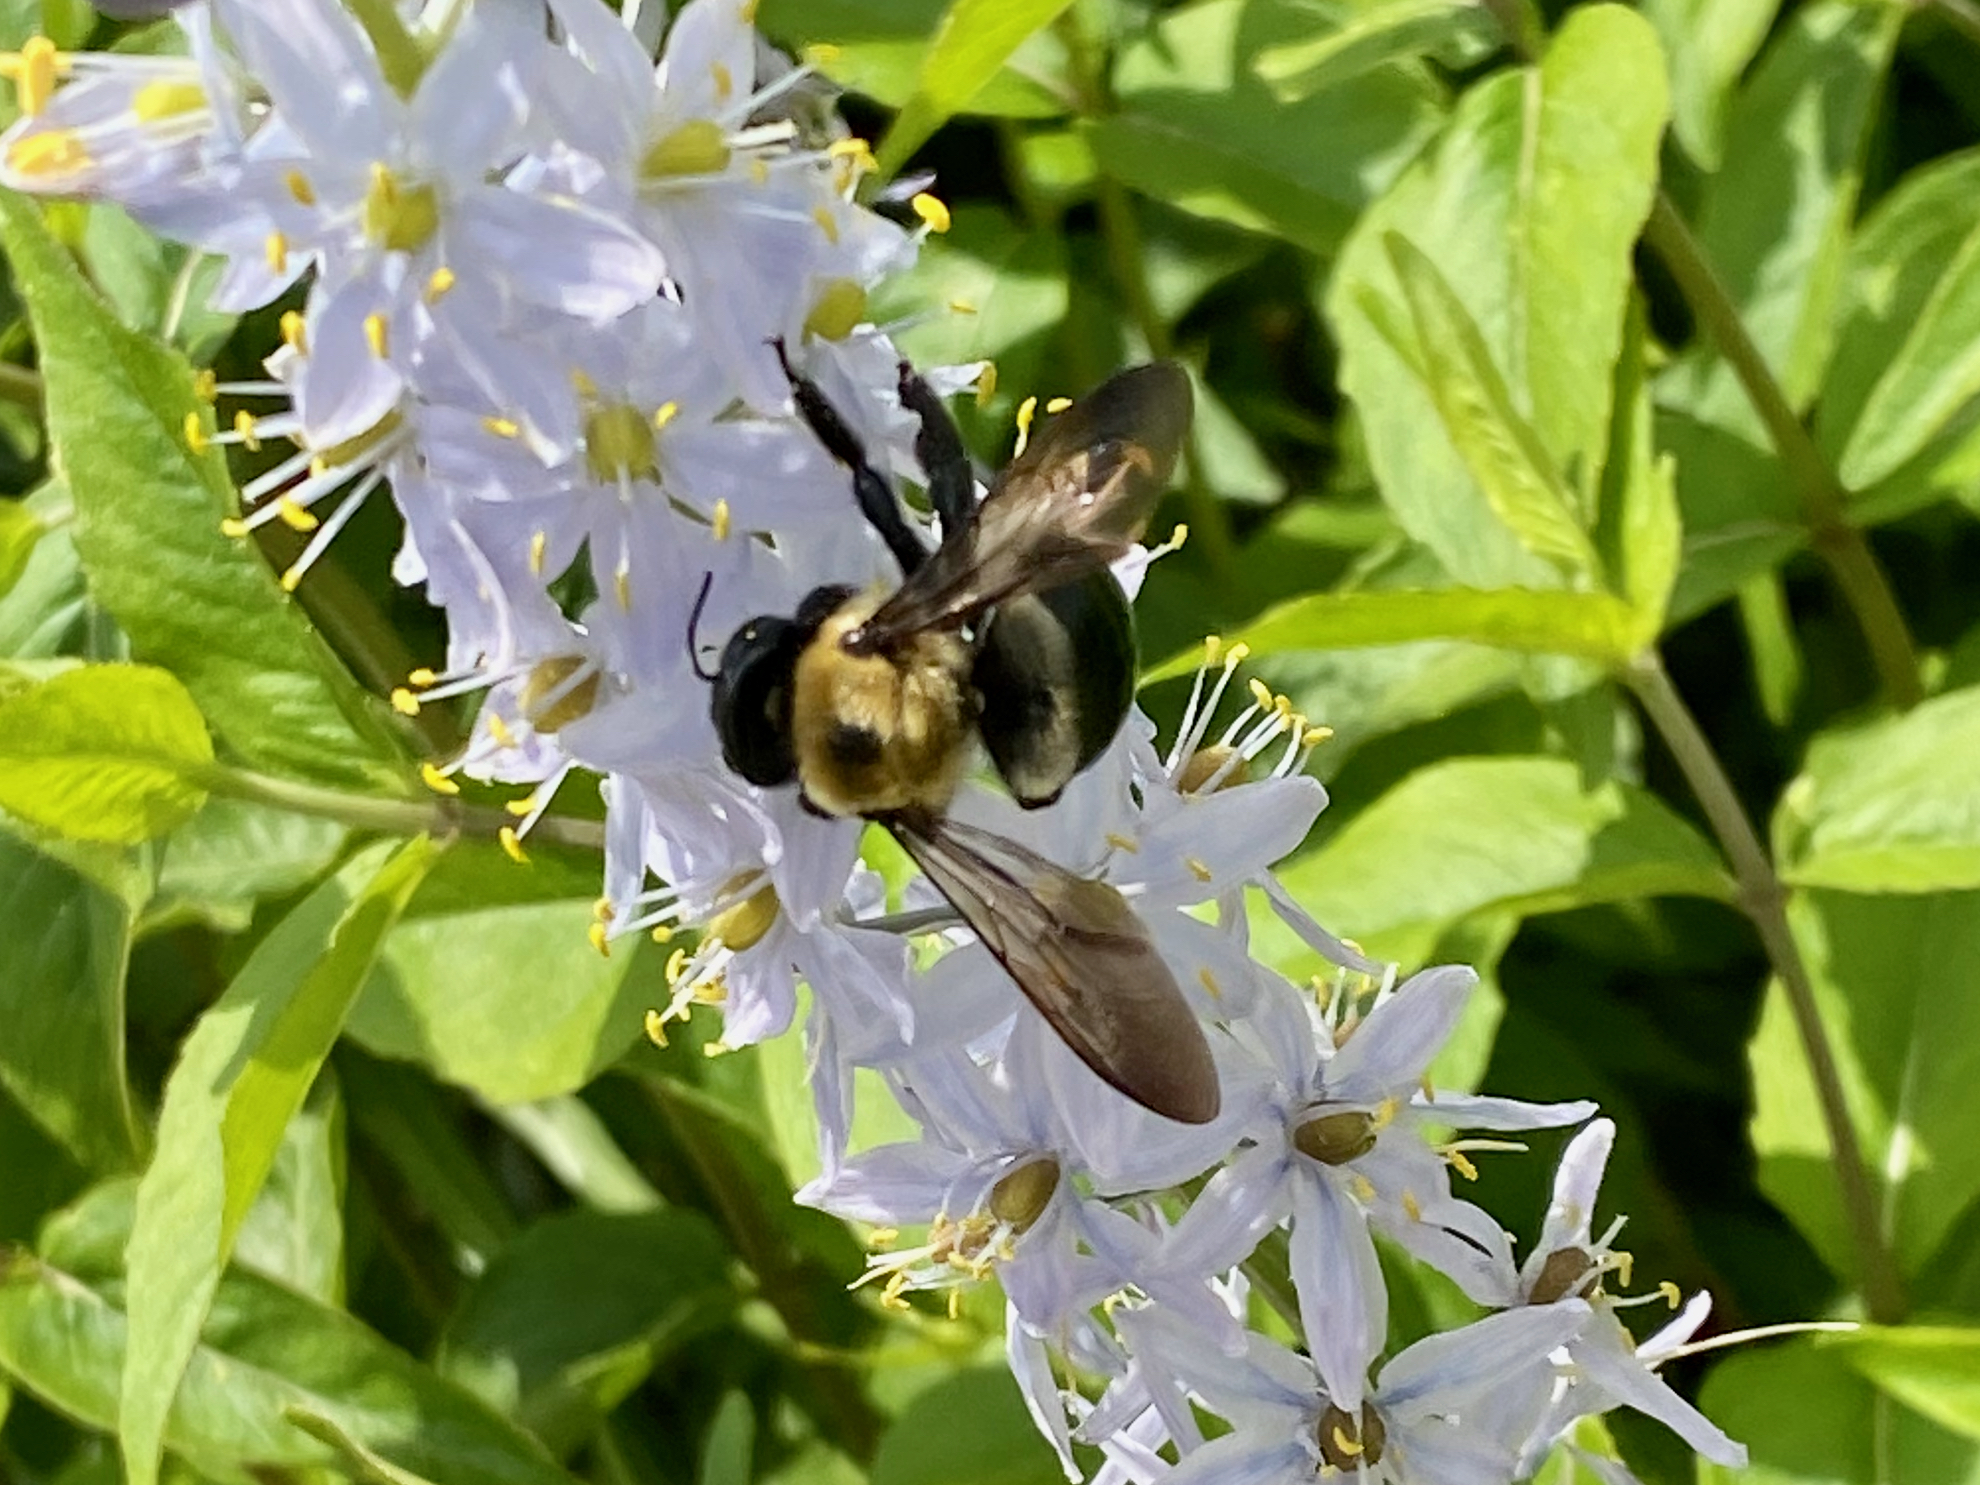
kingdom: Animalia
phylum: Arthropoda
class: Insecta
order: Hymenoptera
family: Apidae
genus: Xylocopa
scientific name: Xylocopa virginica
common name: Carpenter bee
